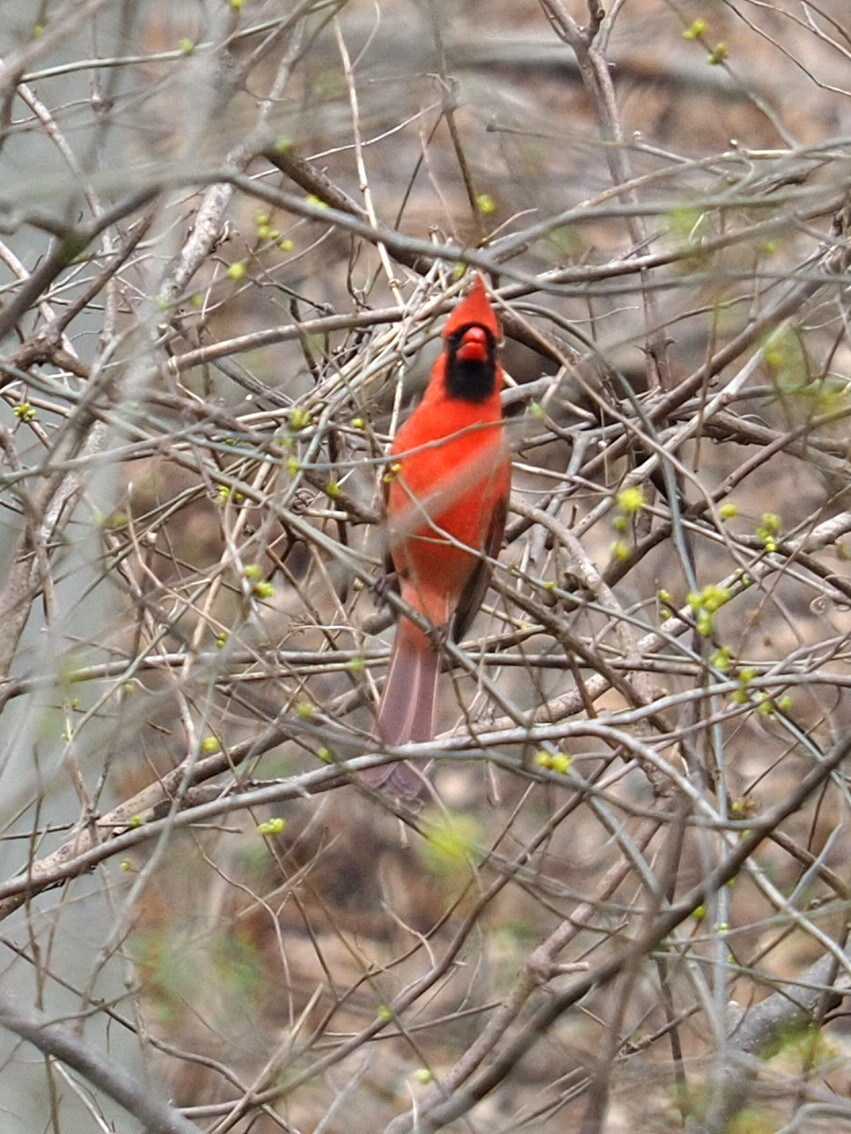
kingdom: Animalia
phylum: Chordata
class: Aves
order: Passeriformes
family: Cardinalidae
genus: Cardinalis
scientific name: Cardinalis cardinalis
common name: Northern cardinal
